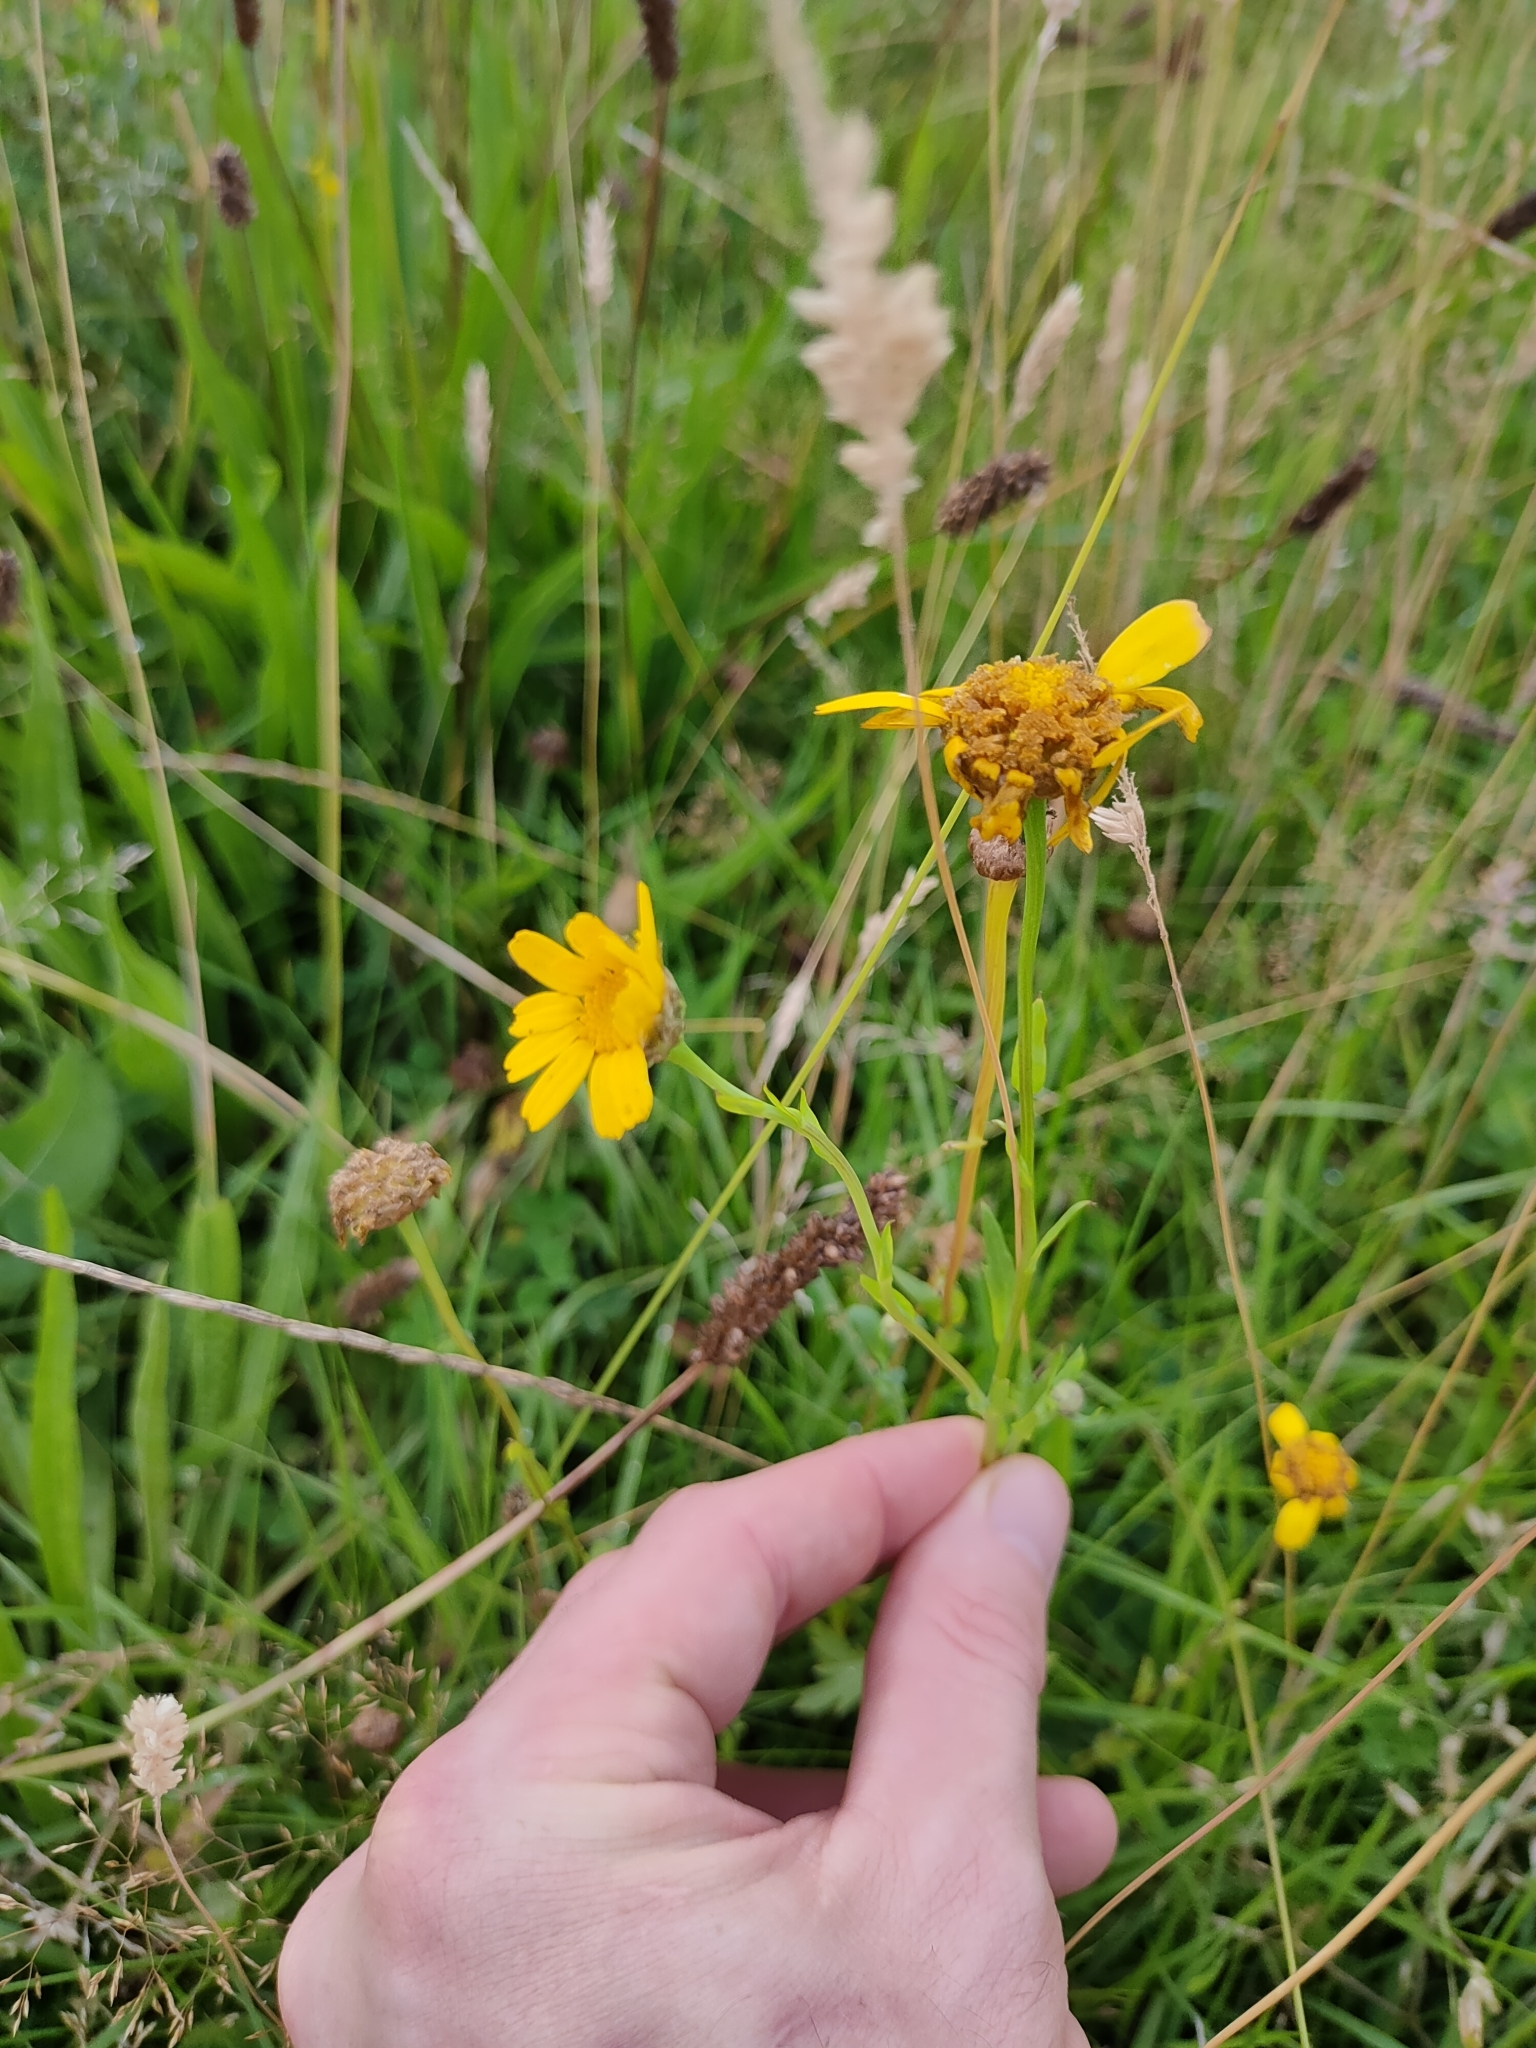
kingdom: Plantae
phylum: Tracheophyta
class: Magnoliopsida
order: Asterales
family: Asteraceae
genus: Glebionis
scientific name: Glebionis segetum
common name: Corndaisy
